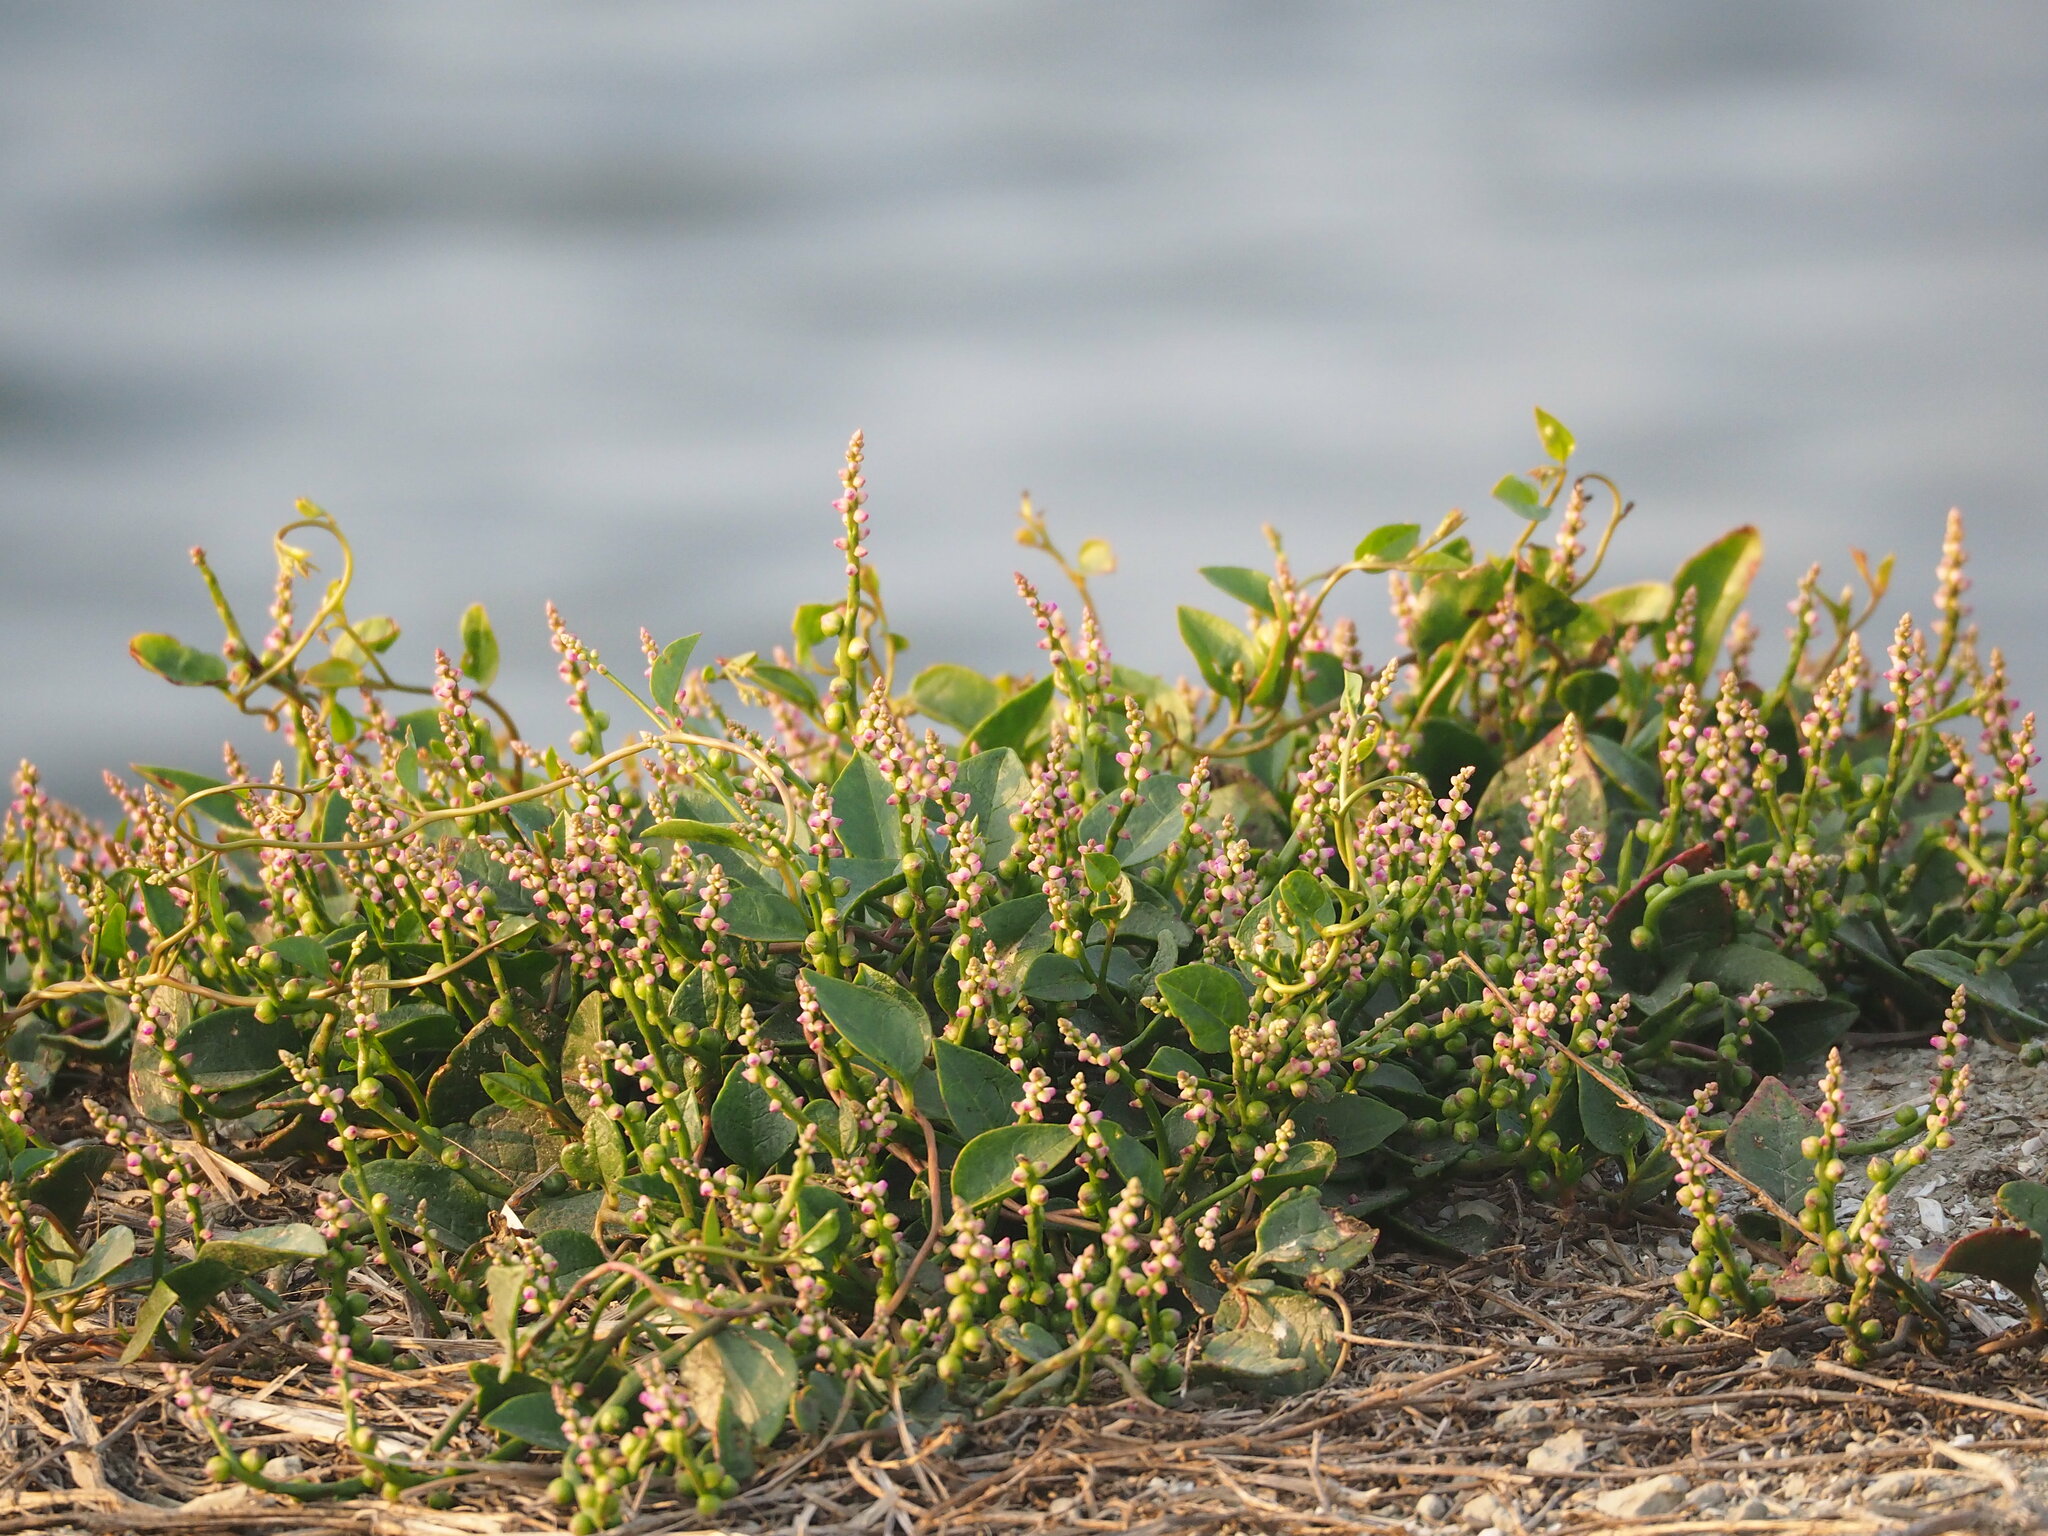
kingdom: Plantae
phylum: Tracheophyta
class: Magnoliopsida
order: Caryophyllales
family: Basellaceae
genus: Basella
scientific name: Basella alba
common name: Indian spinach
